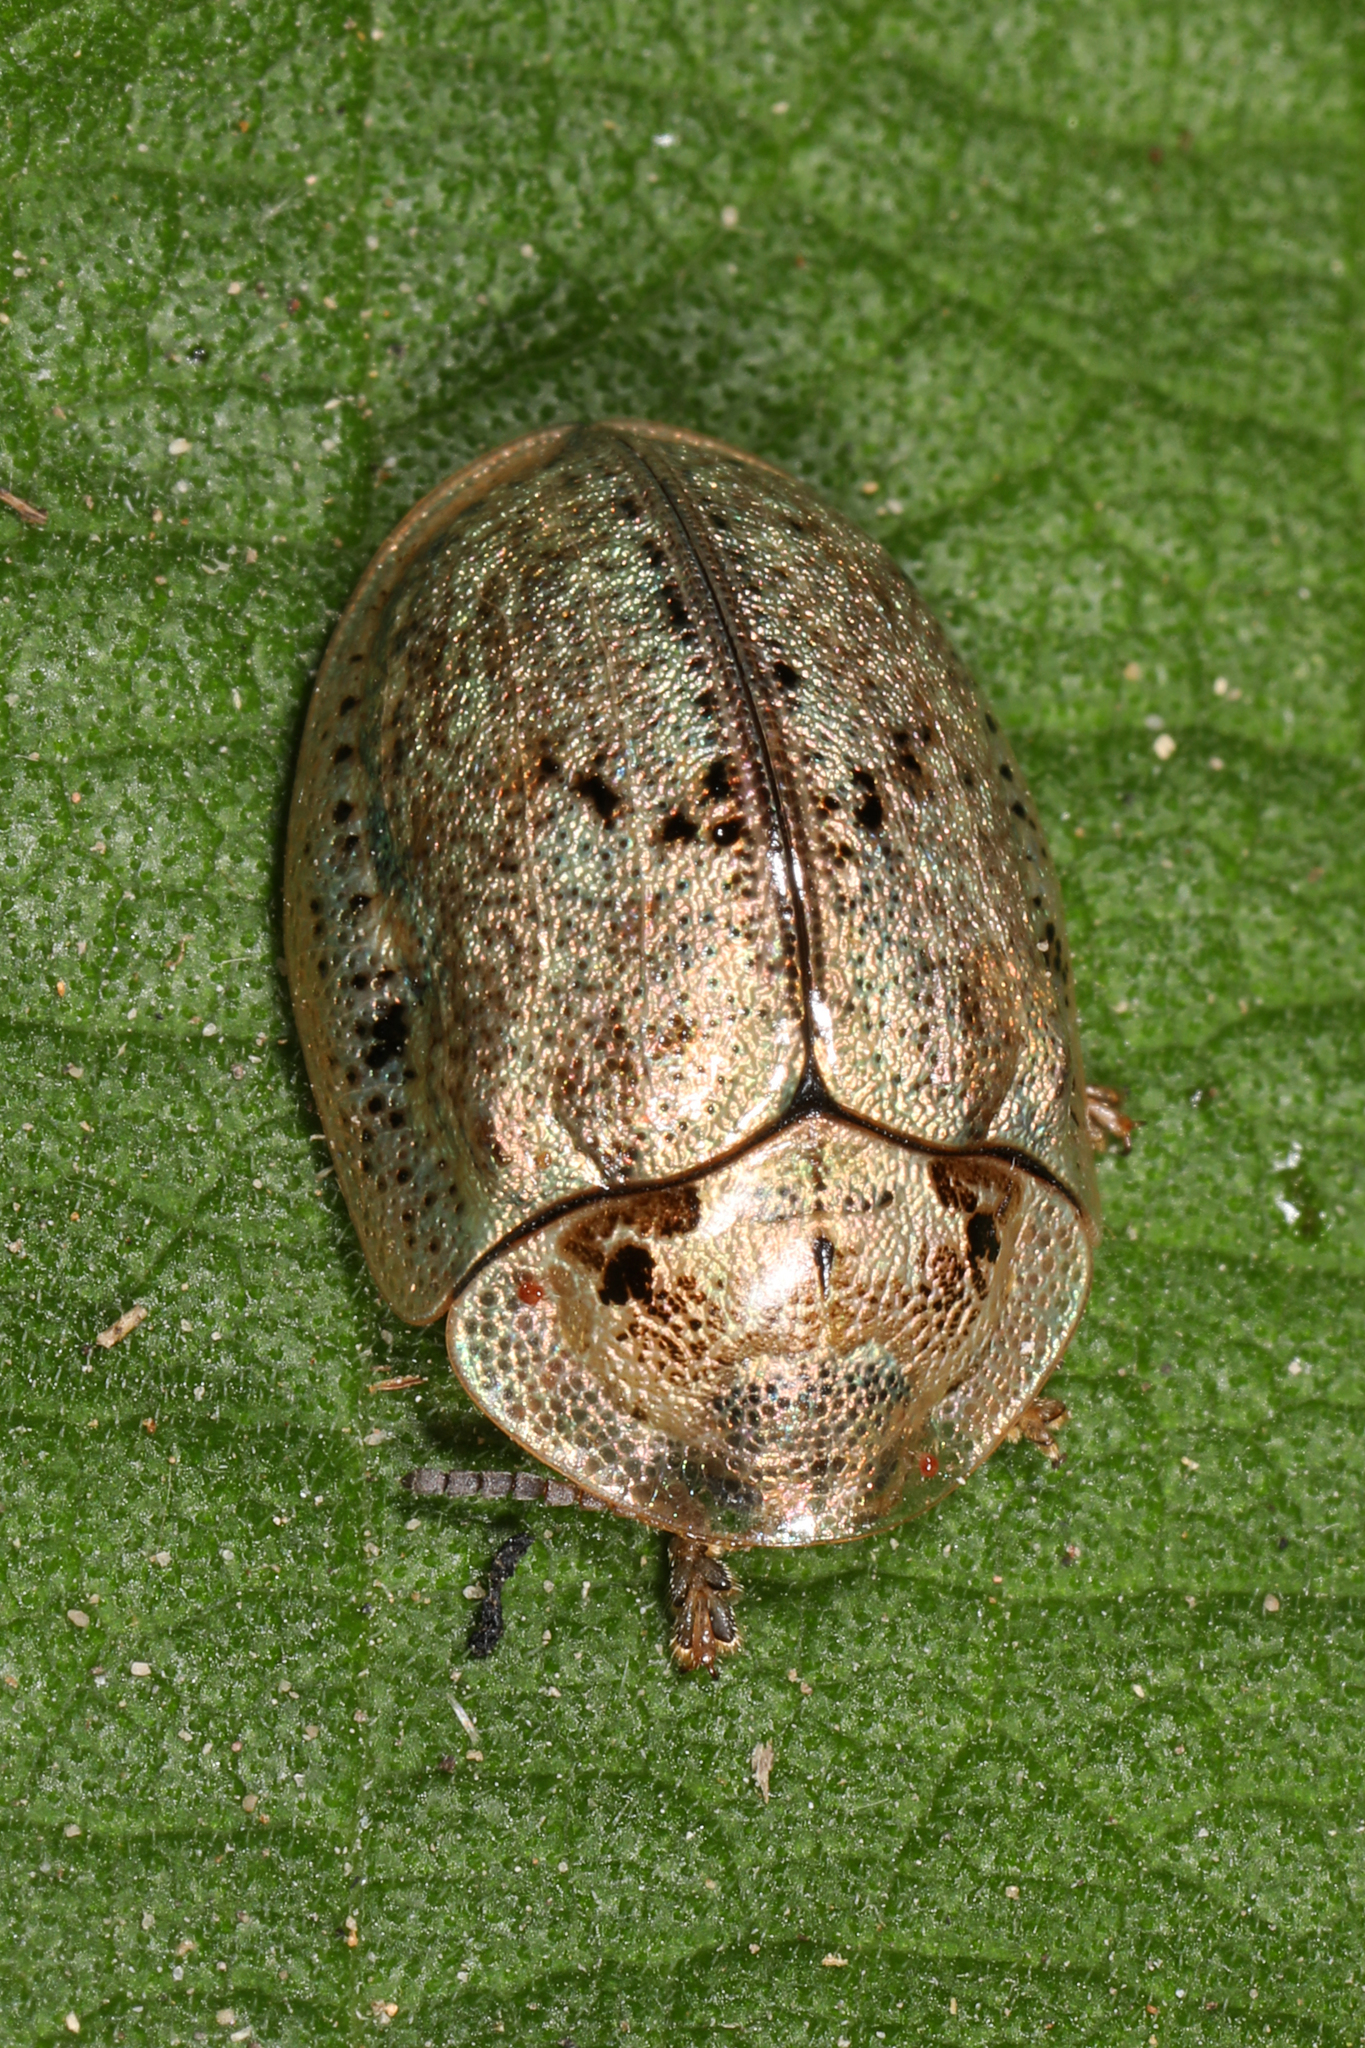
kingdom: Animalia
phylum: Arthropoda
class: Insecta
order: Coleoptera
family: Chrysomelidae
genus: Physonota
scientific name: Physonota alutacea
